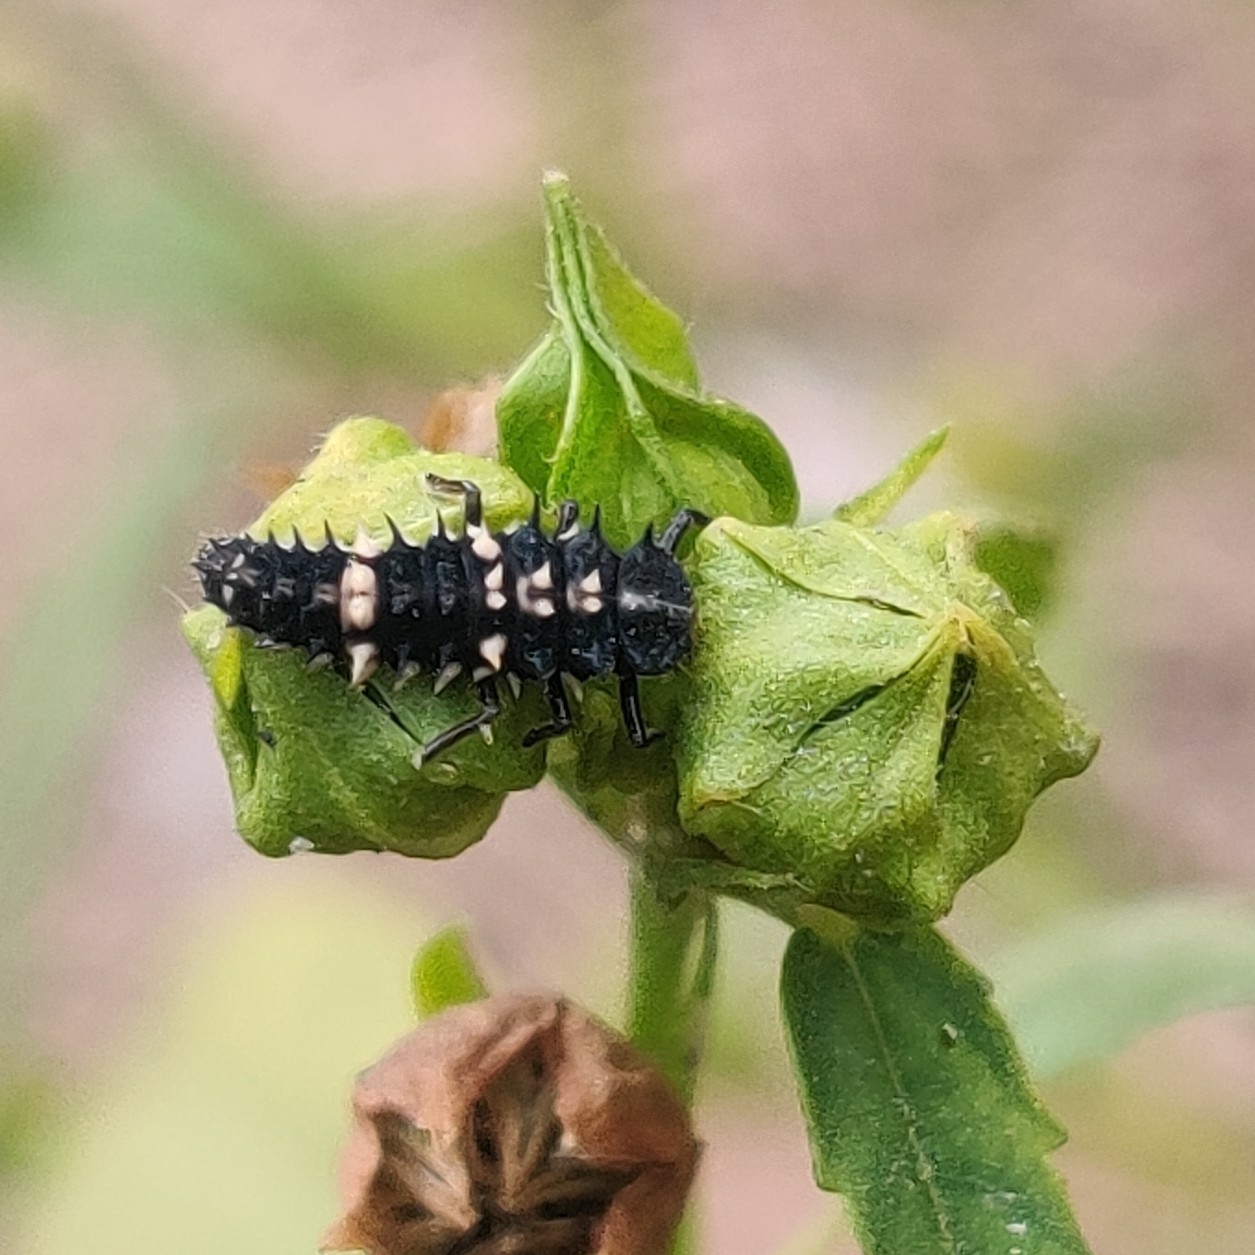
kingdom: Animalia
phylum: Arthropoda
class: Insecta
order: Coleoptera
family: Coccinellidae
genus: Cheilomenes
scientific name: Cheilomenes sexmaculata
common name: Ladybird beetle
